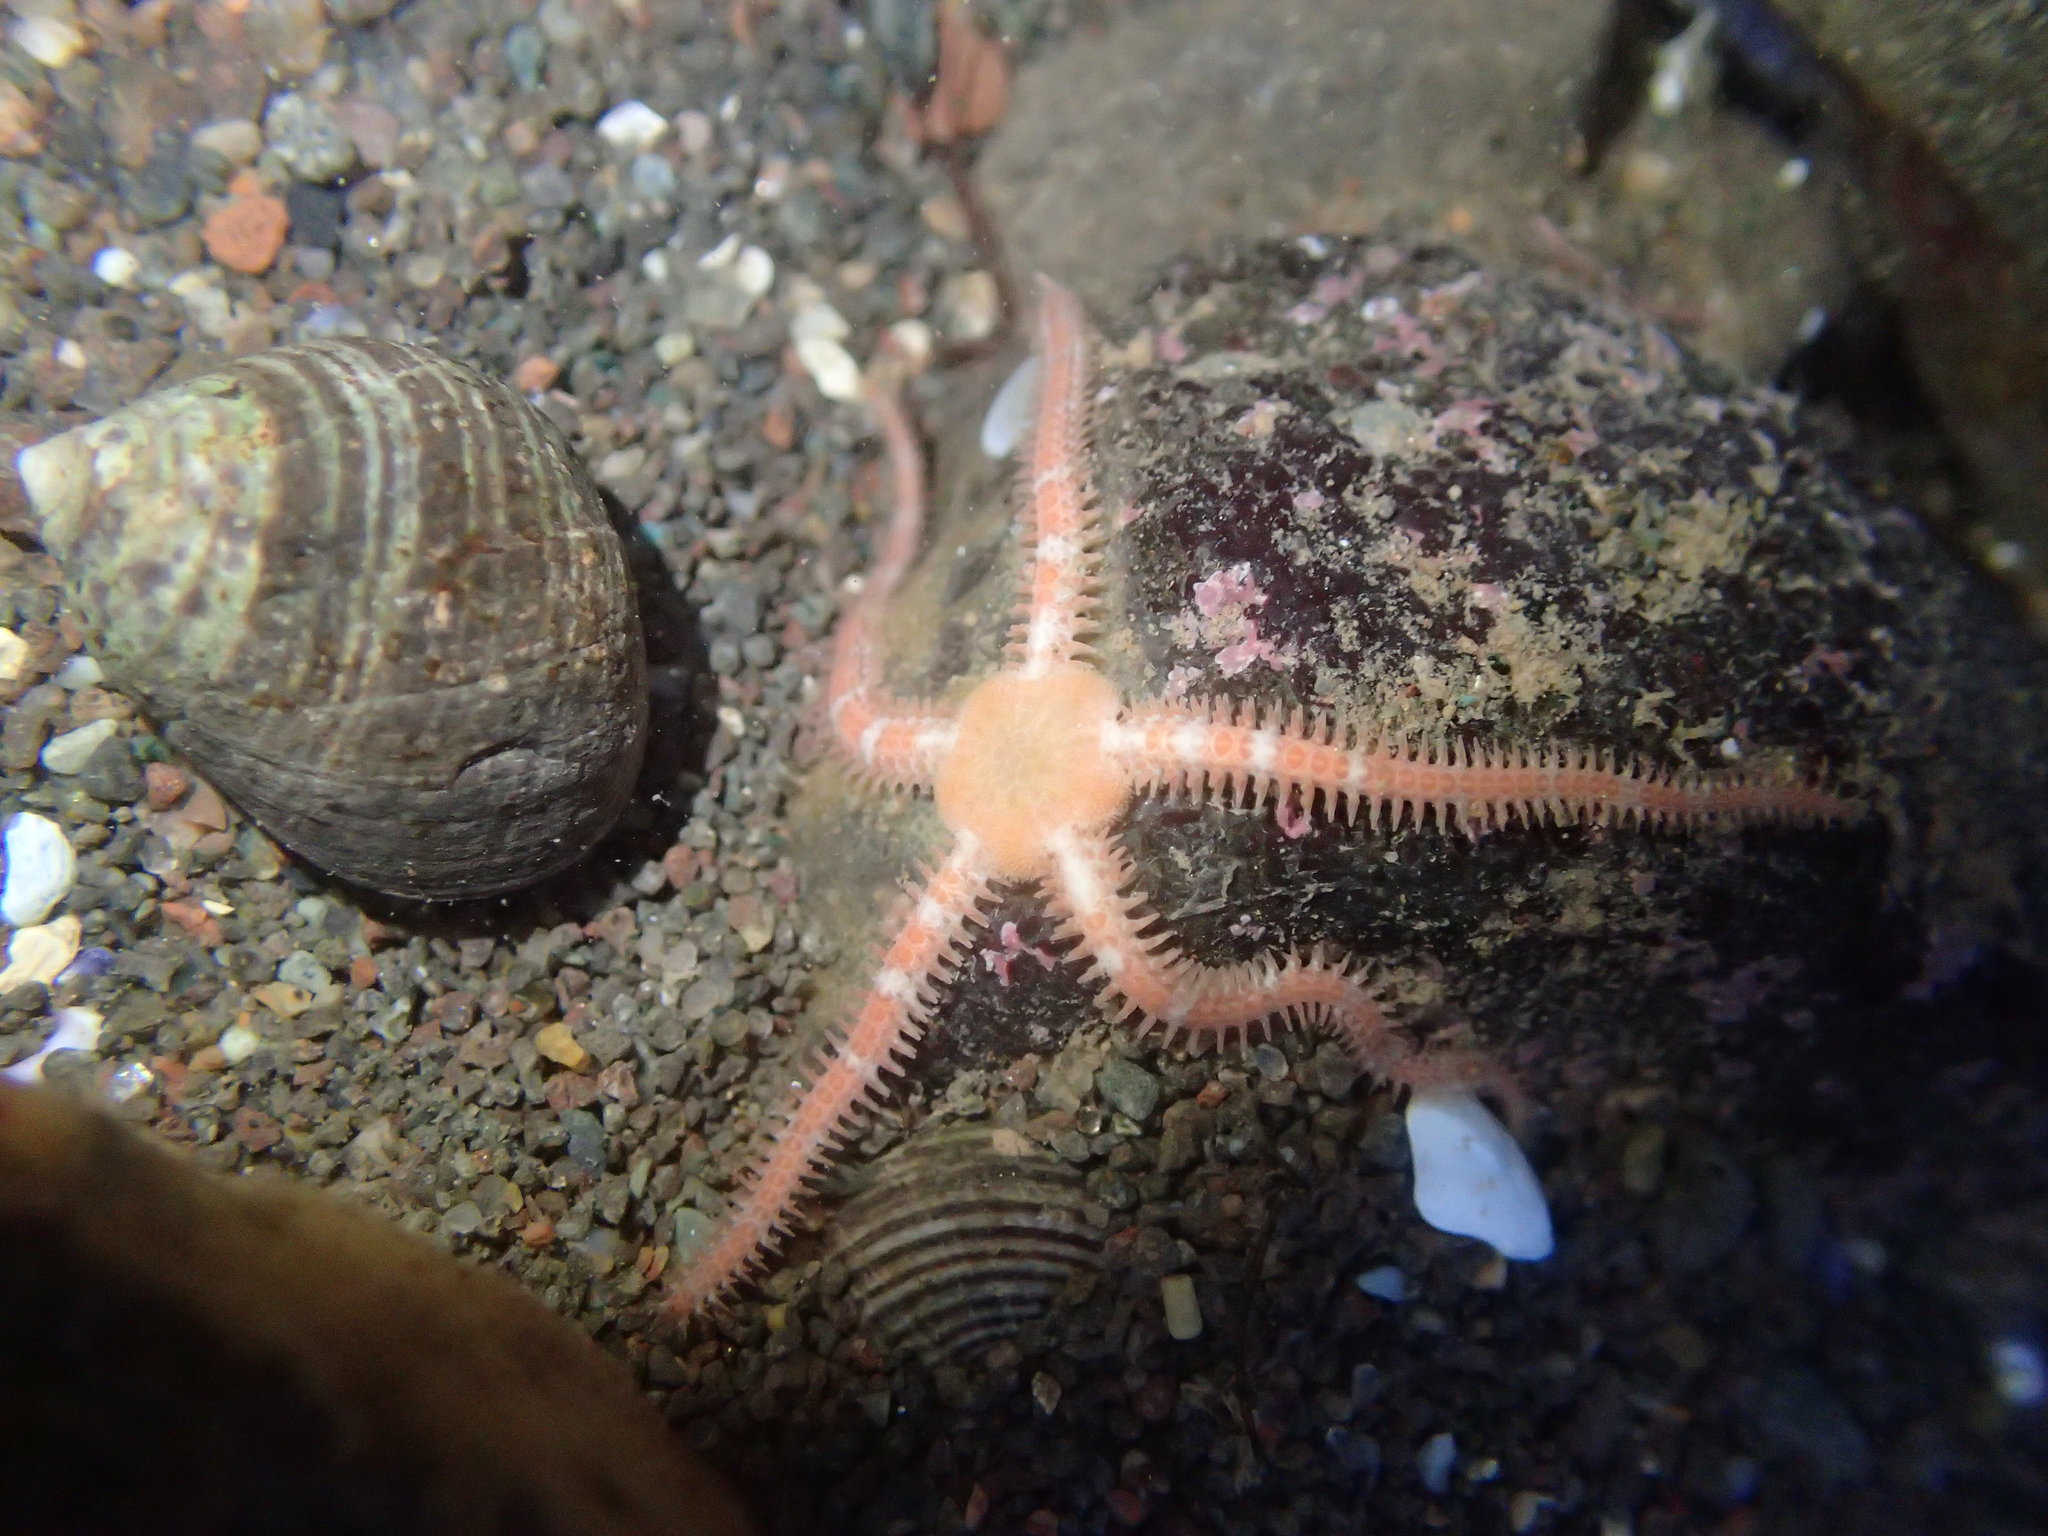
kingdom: Animalia
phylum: Echinodermata
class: Ophiuroidea
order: Amphilepidida
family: Ophiopholidae
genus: Ophiopholis
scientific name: Ophiopholis aculeata
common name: Crevice brittlestar
